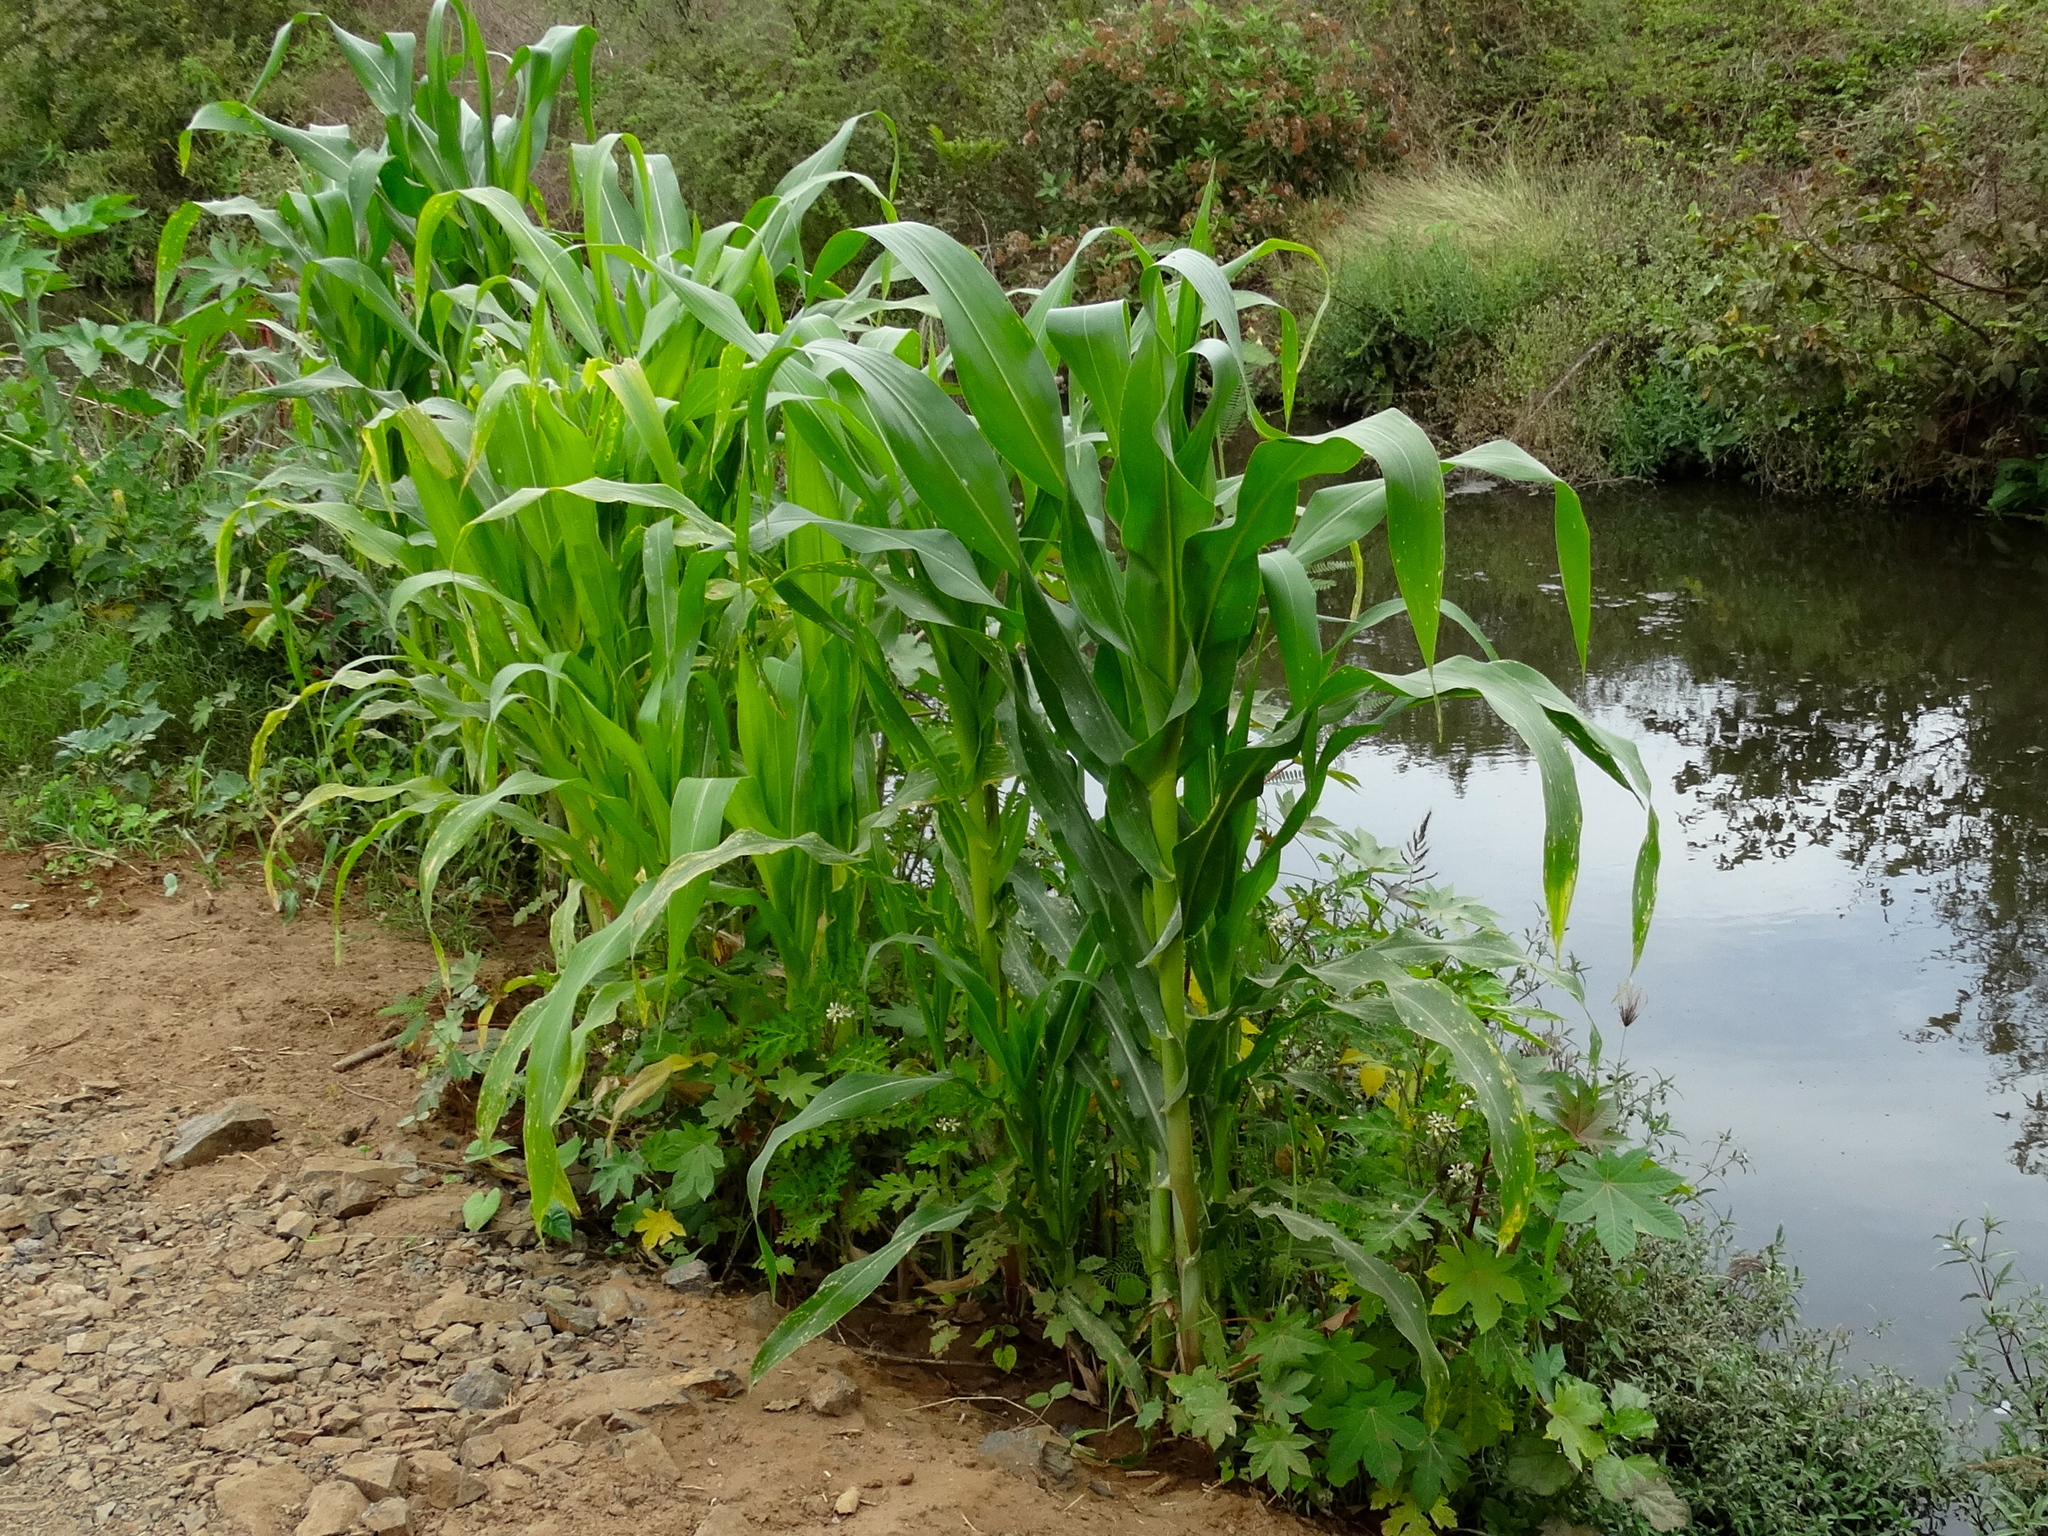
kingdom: Plantae
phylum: Tracheophyta
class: Liliopsida
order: Poales
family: Poaceae
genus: Zea
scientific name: Zea mays
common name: Maize
